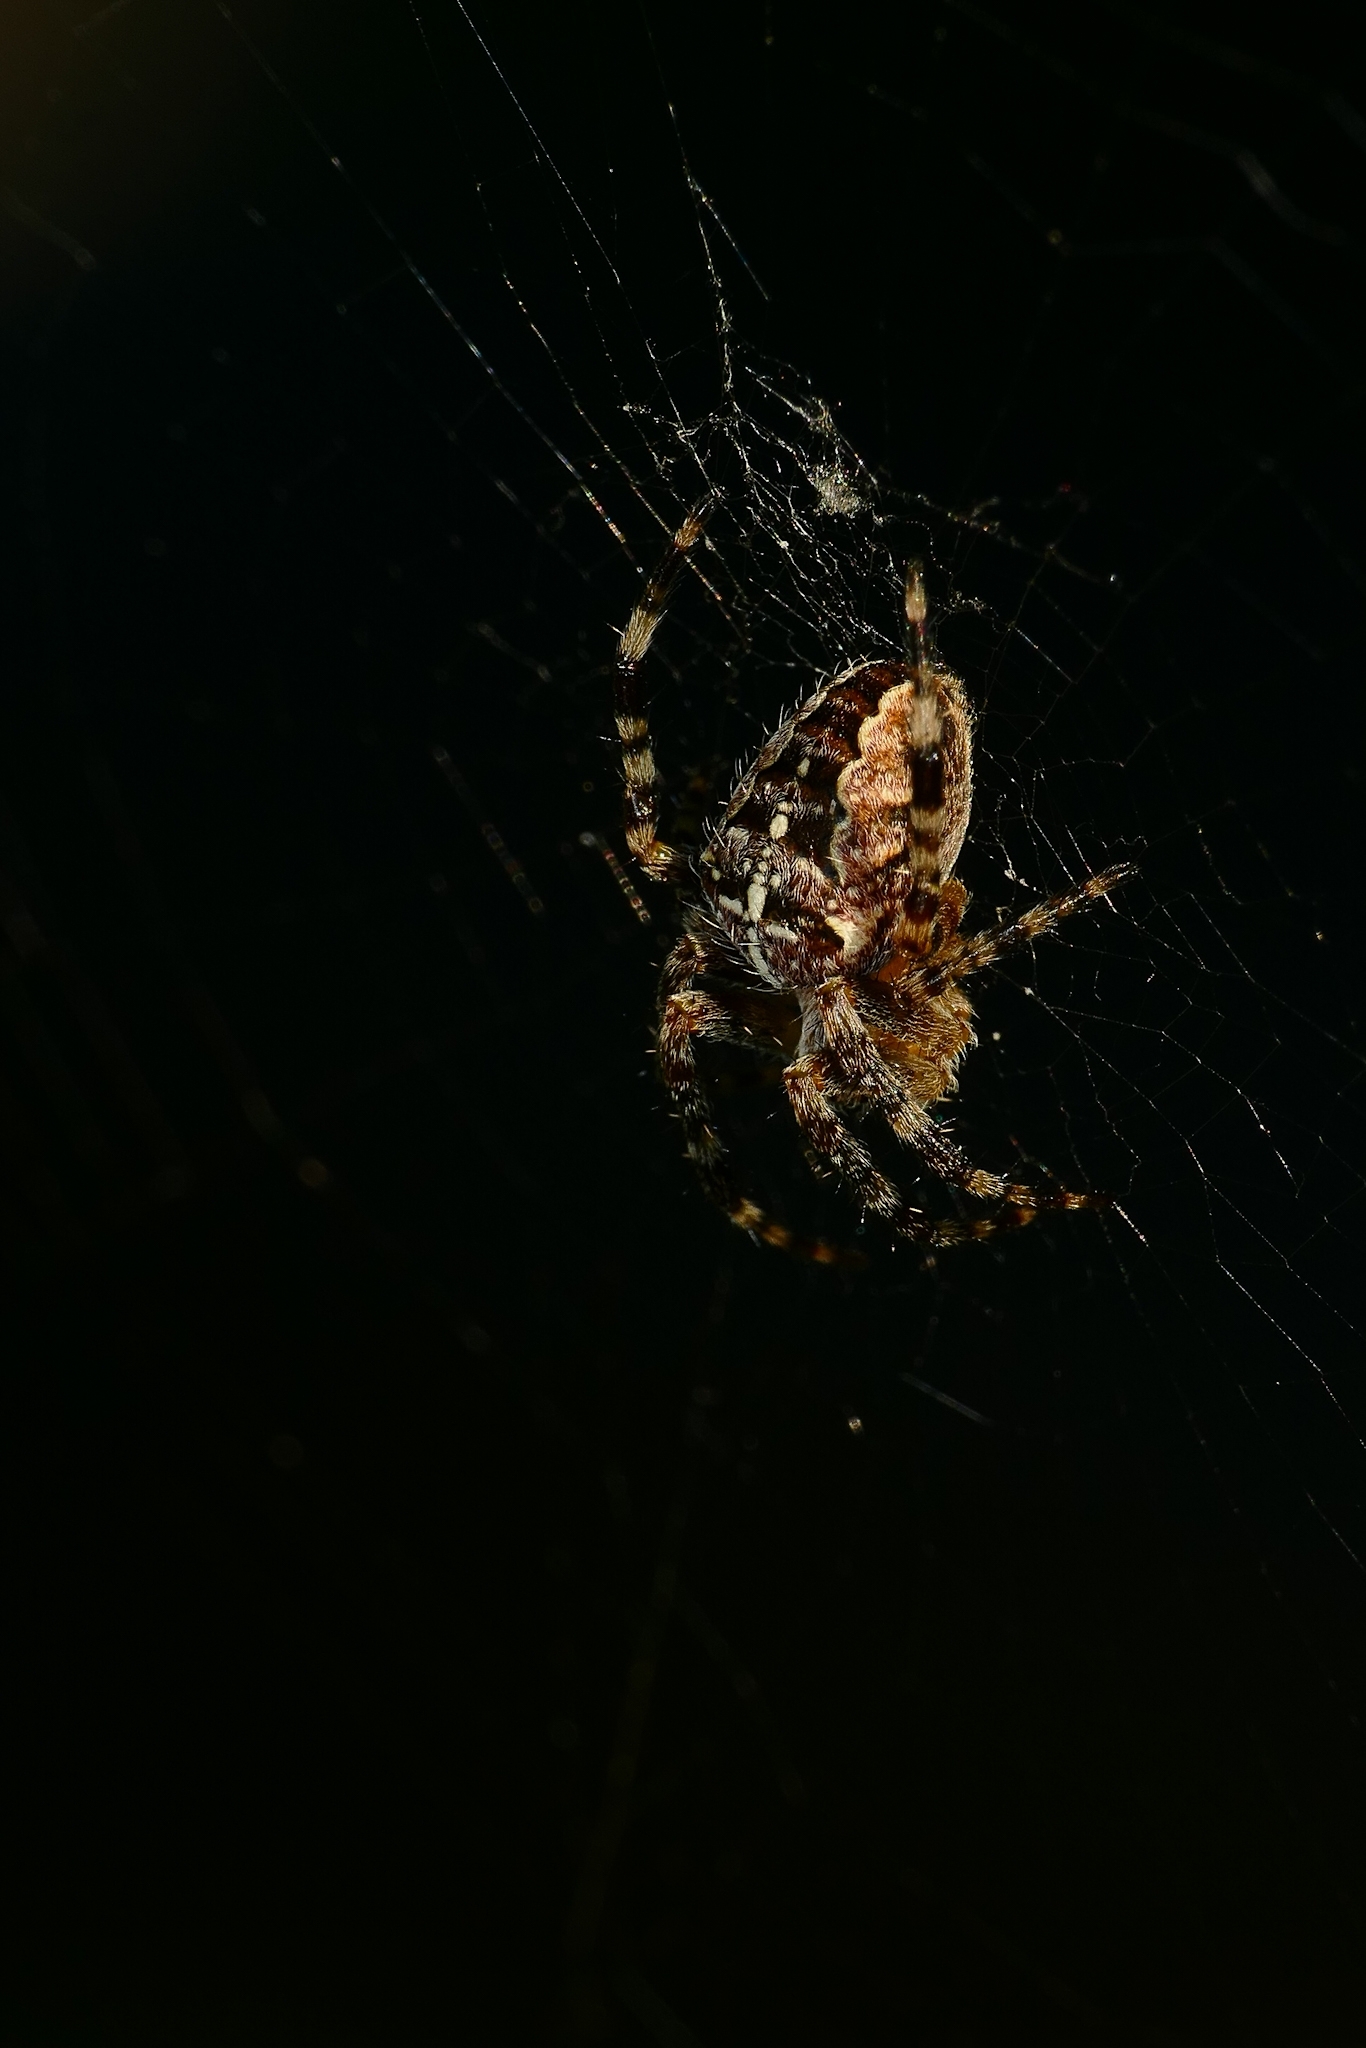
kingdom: Animalia
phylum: Arthropoda
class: Arachnida
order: Araneae
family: Araneidae
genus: Araneus
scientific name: Araneus diadematus
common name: Cross orbweaver
